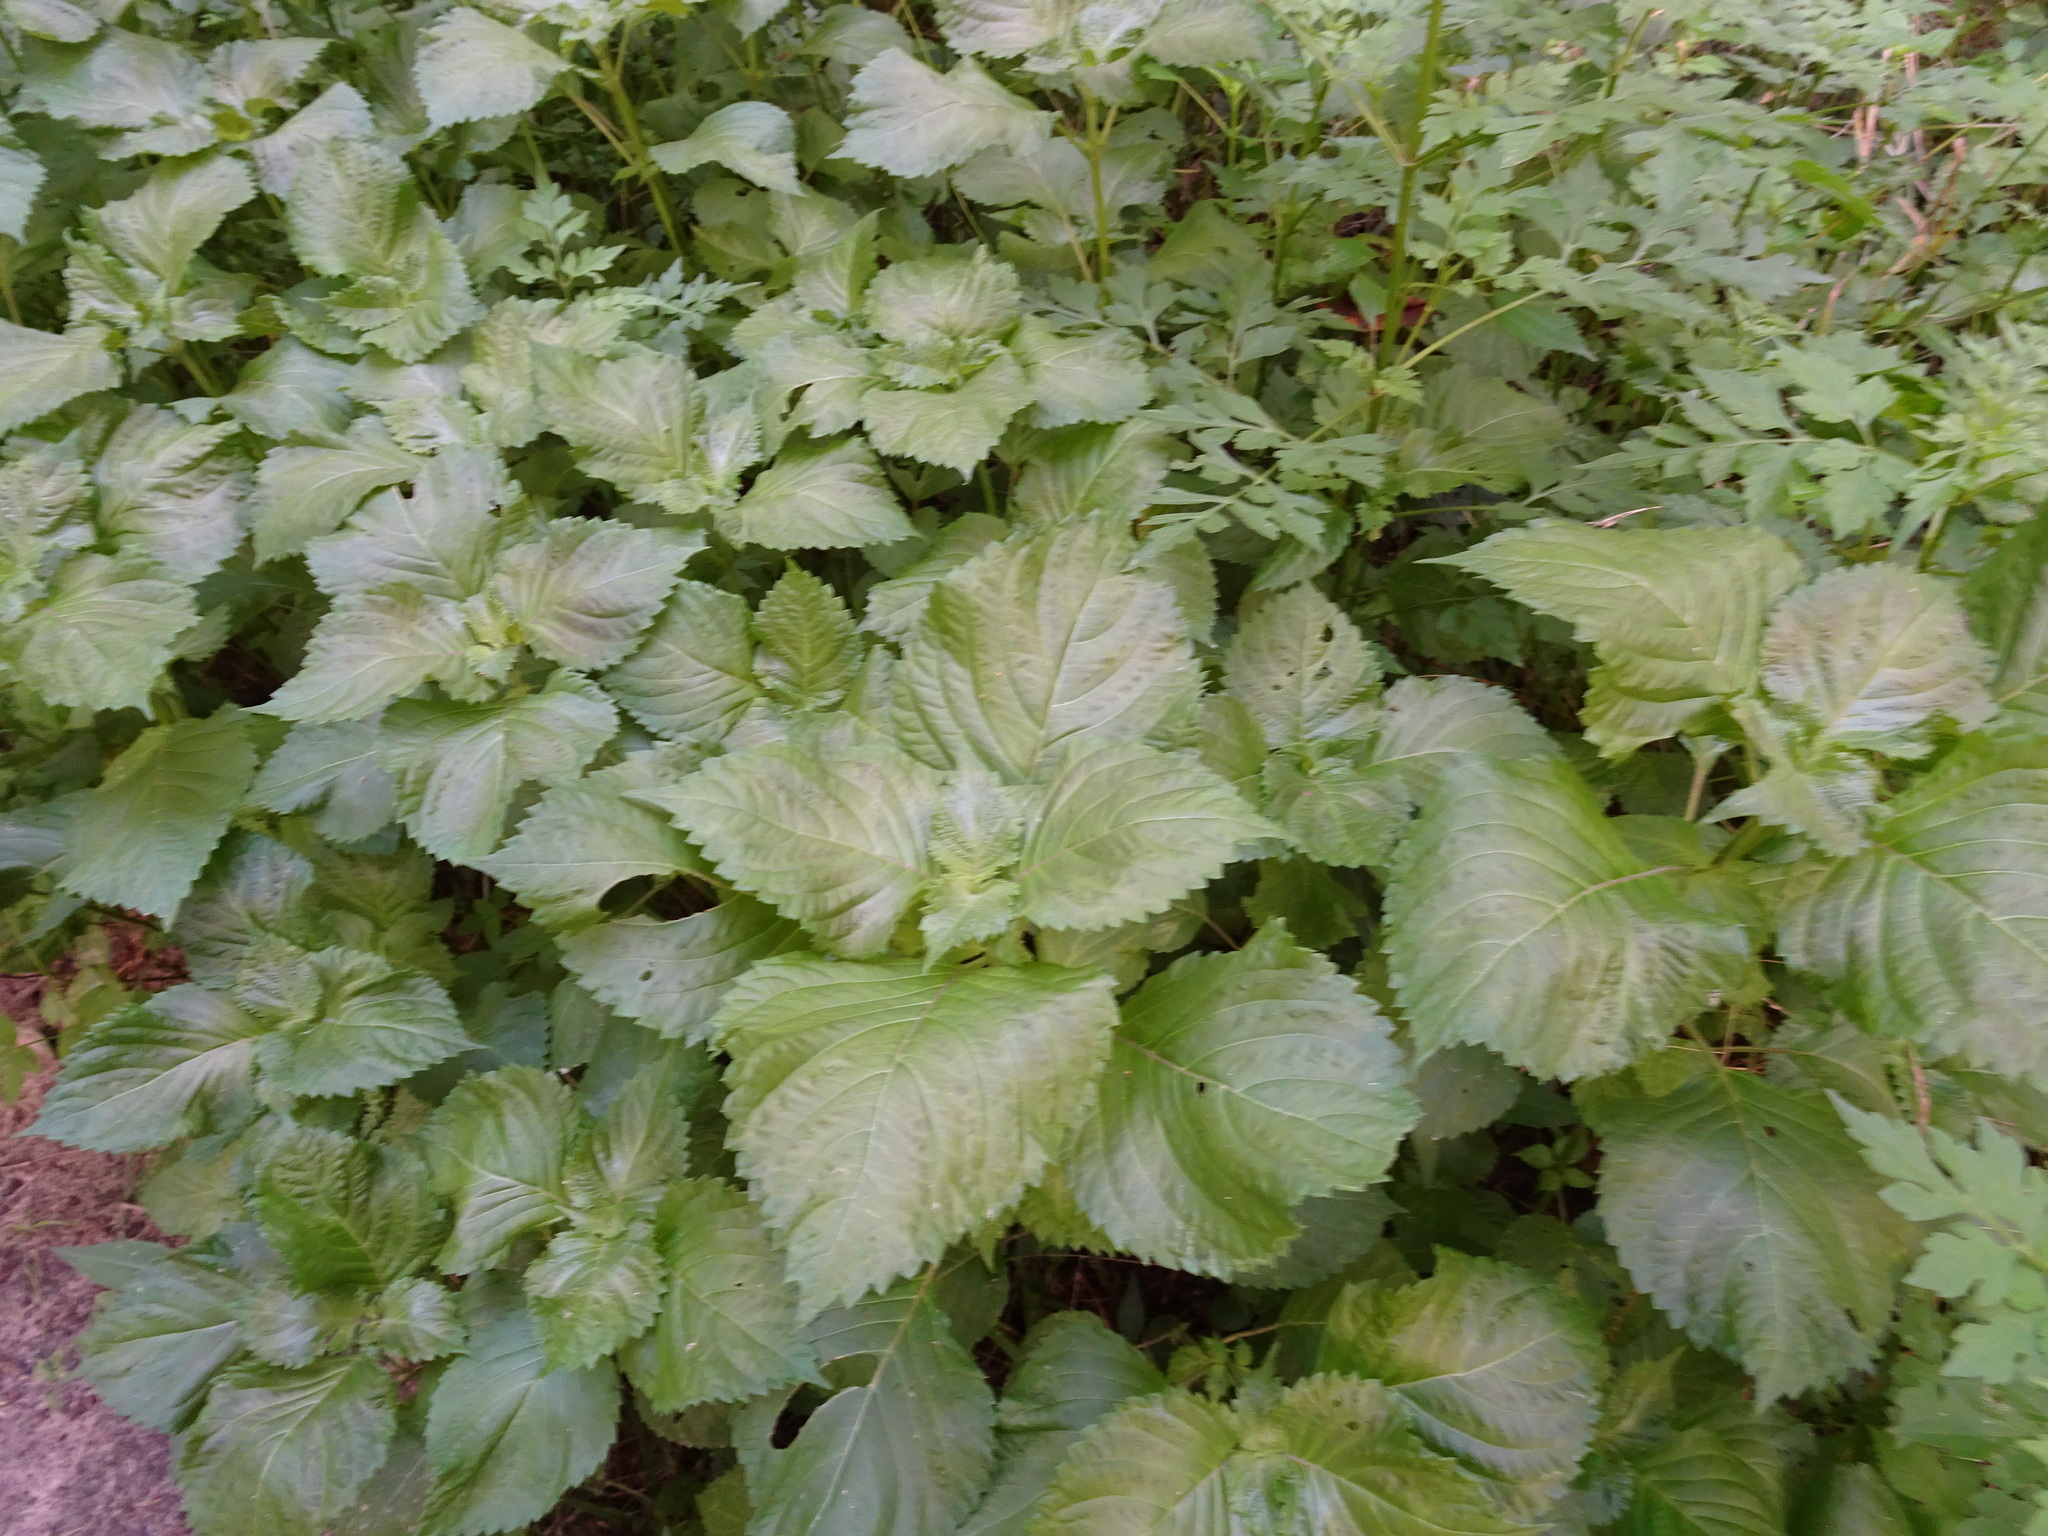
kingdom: Plantae
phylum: Tracheophyta
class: Magnoliopsida
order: Lamiales
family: Lamiaceae
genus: Perilla
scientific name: Perilla frutescens
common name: Perilla
